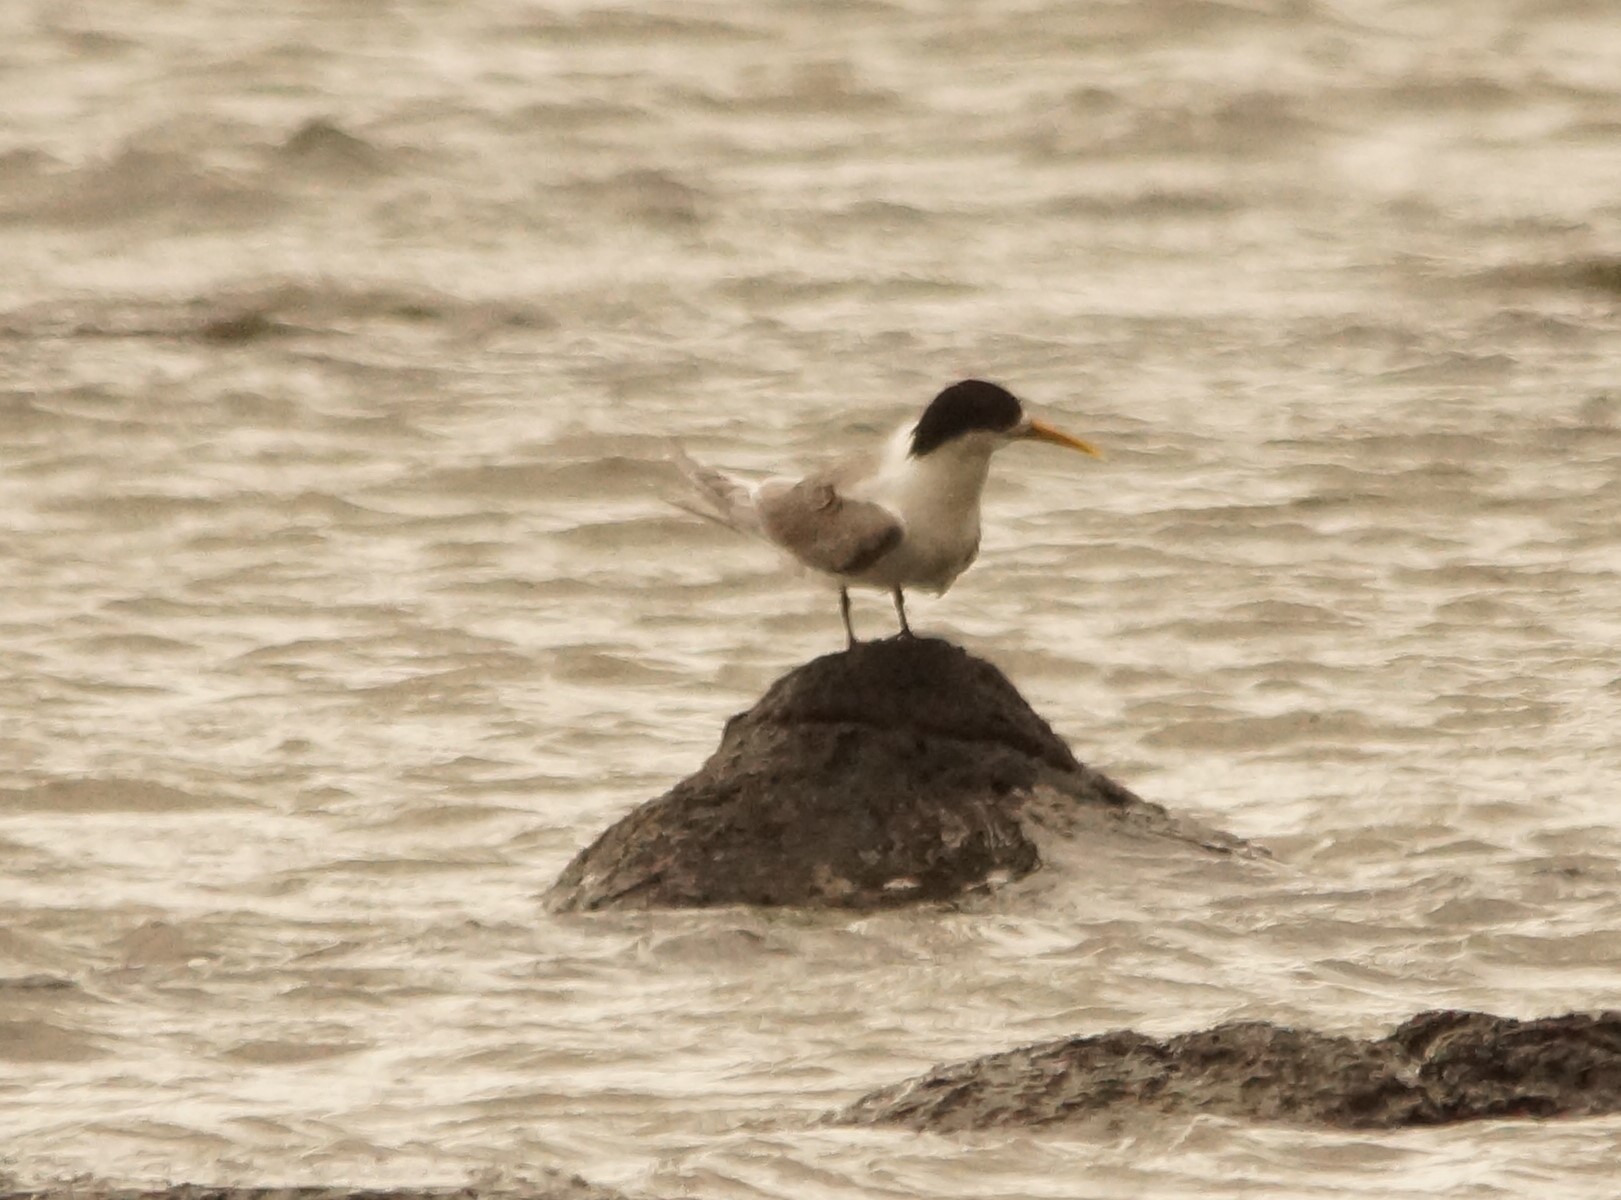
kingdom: Animalia
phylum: Chordata
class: Aves
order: Charadriiformes
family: Laridae
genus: Thalasseus
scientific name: Thalasseus bergii
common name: Greater crested tern
